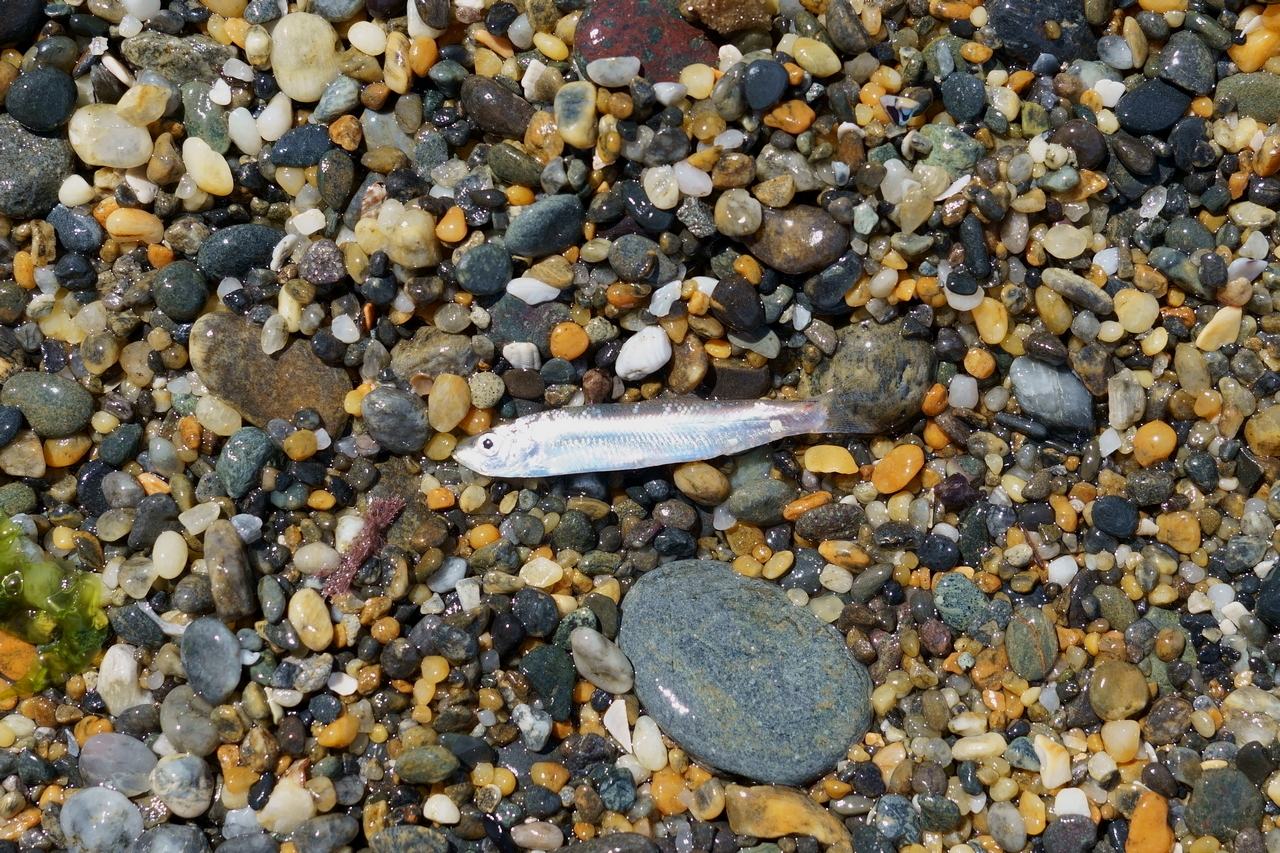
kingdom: Animalia
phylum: Chordata
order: Clupeiformes
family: Clupeidae
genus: Sprattus
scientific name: Sprattus antipodum
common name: New zealand blueback sprat
